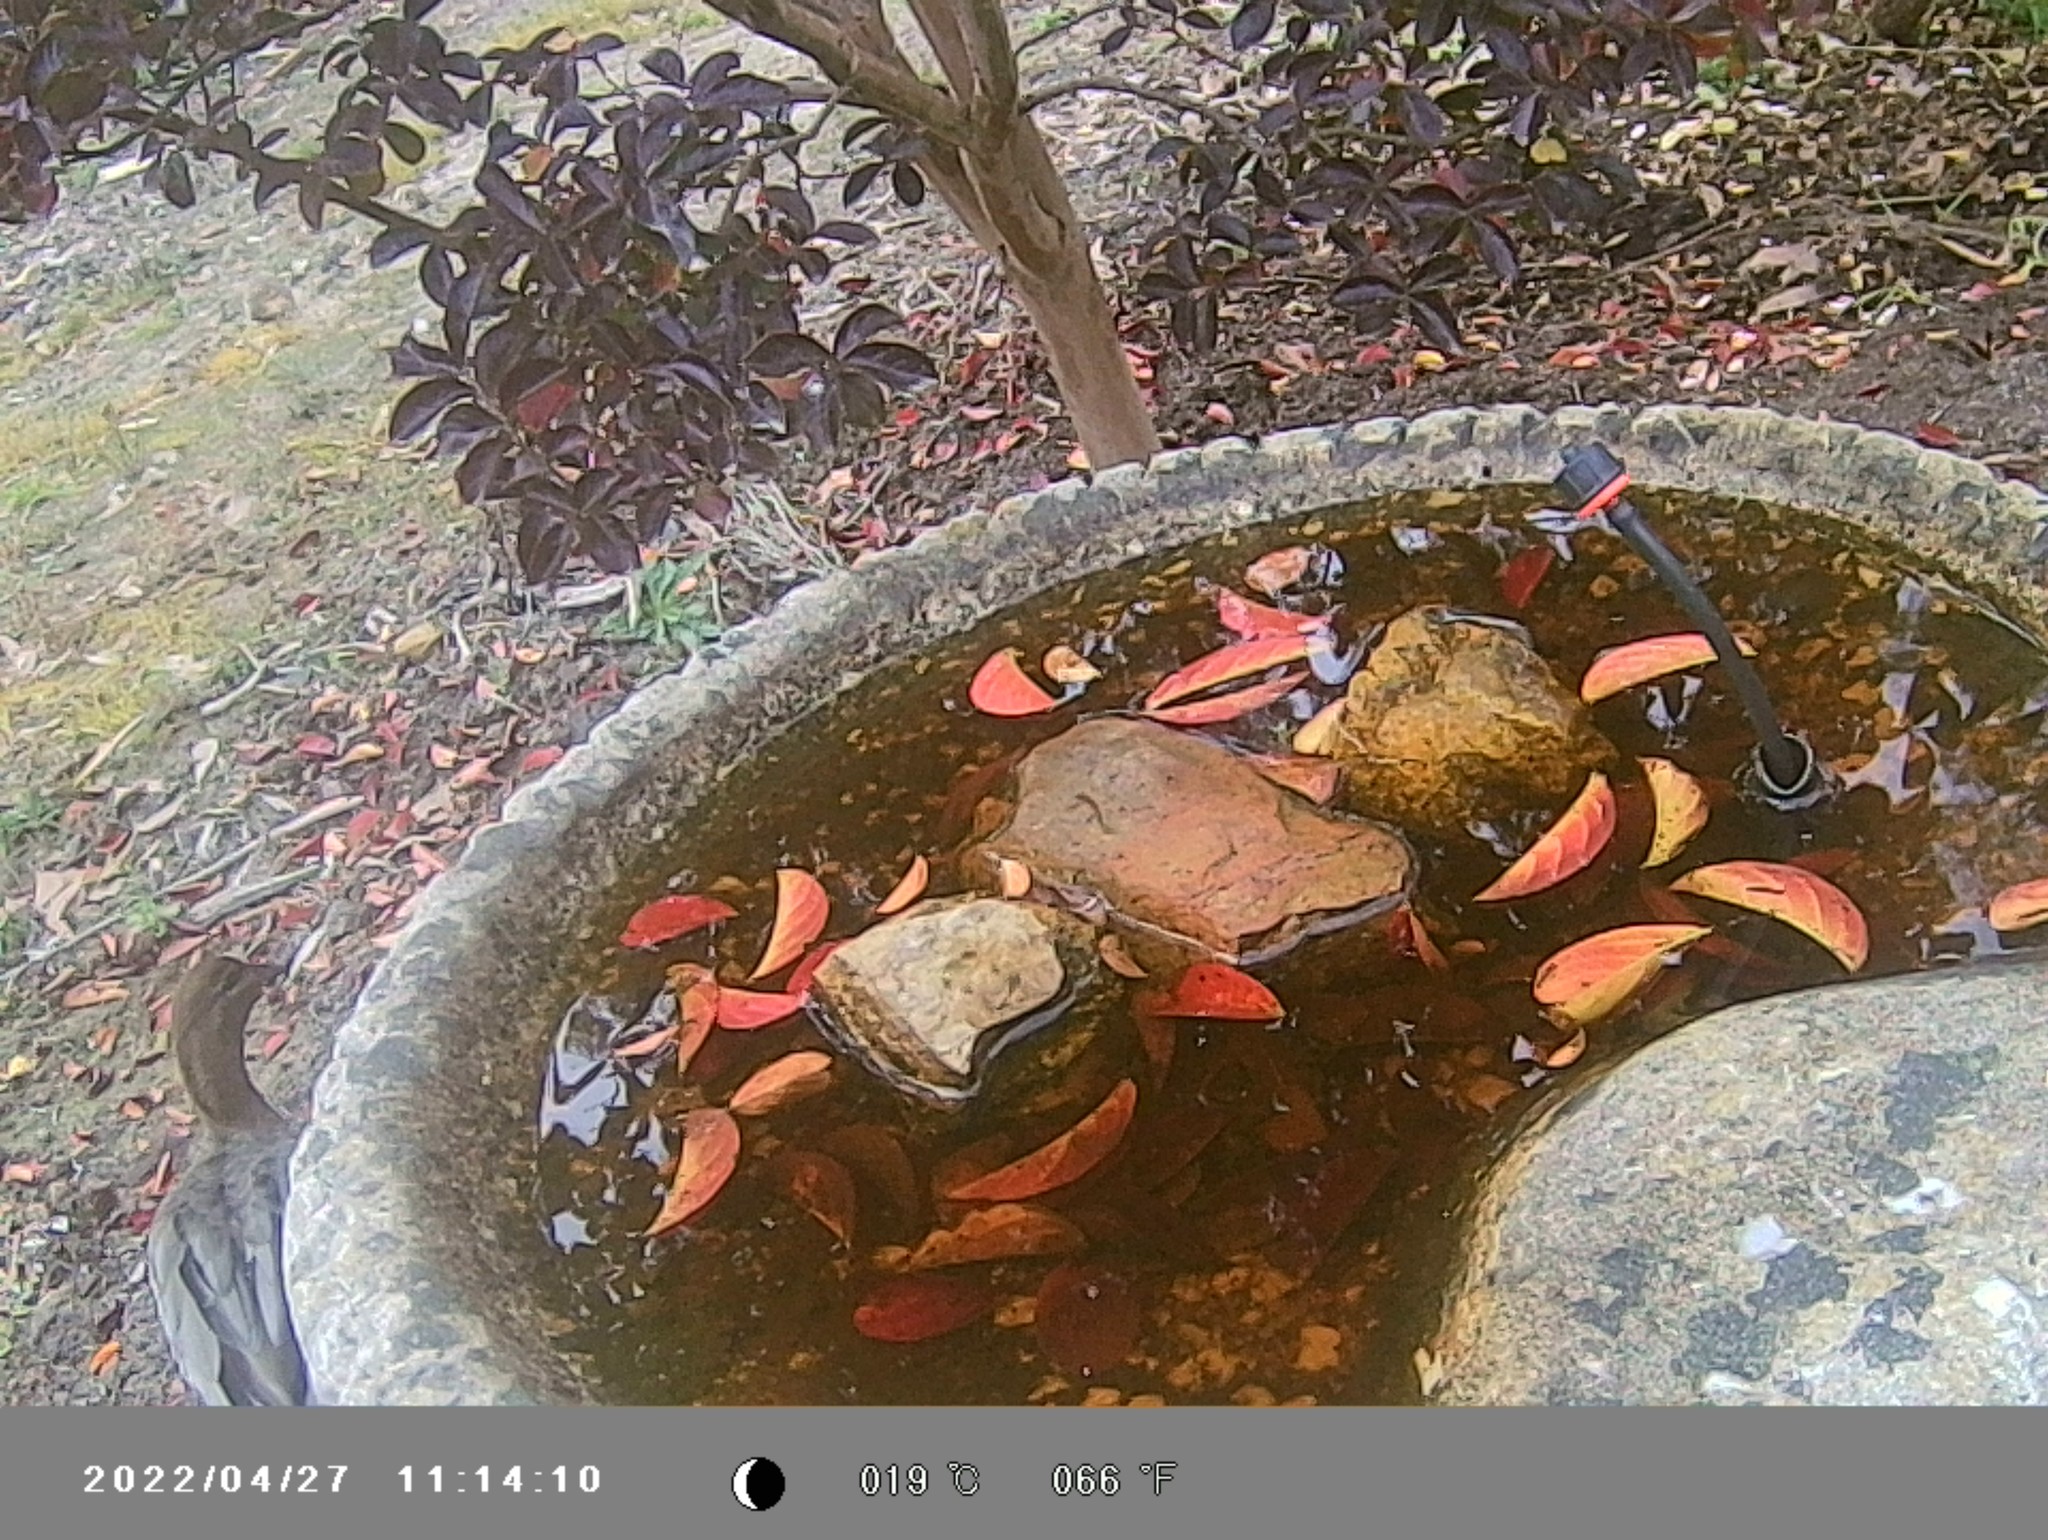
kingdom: Animalia
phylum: Chordata
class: Aves
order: Anseriformes
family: Anatidae
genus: Chenonetta
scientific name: Chenonetta jubata
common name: Maned duck
